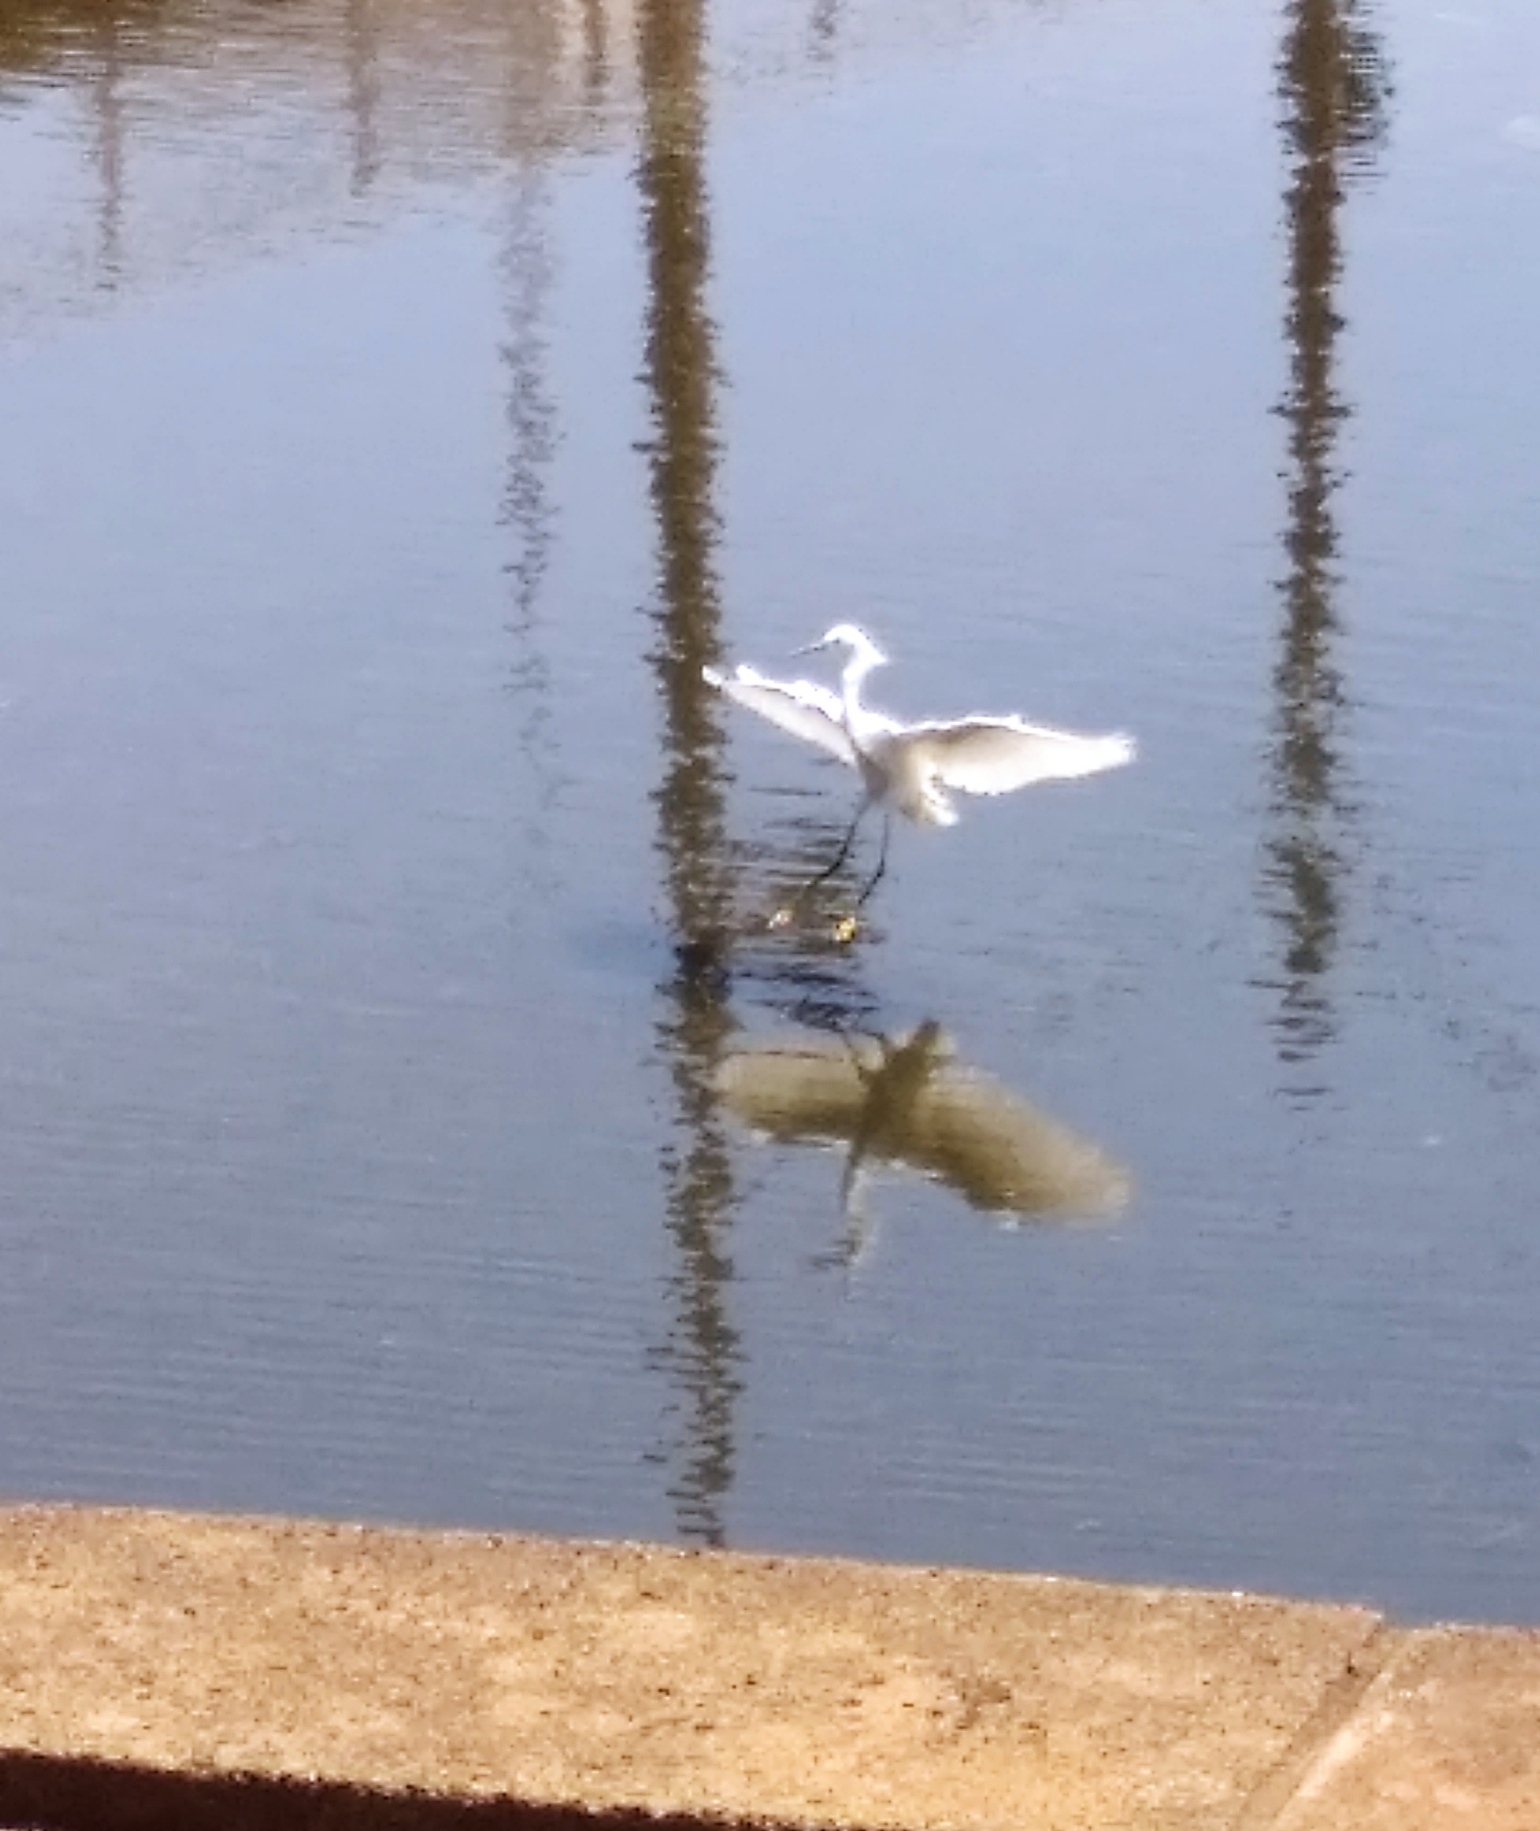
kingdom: Animalia
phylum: Chordata
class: Aves
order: Pelecaniformes
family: Ardeidae
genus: Egretta
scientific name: Egretta thula
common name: Snowy egret
